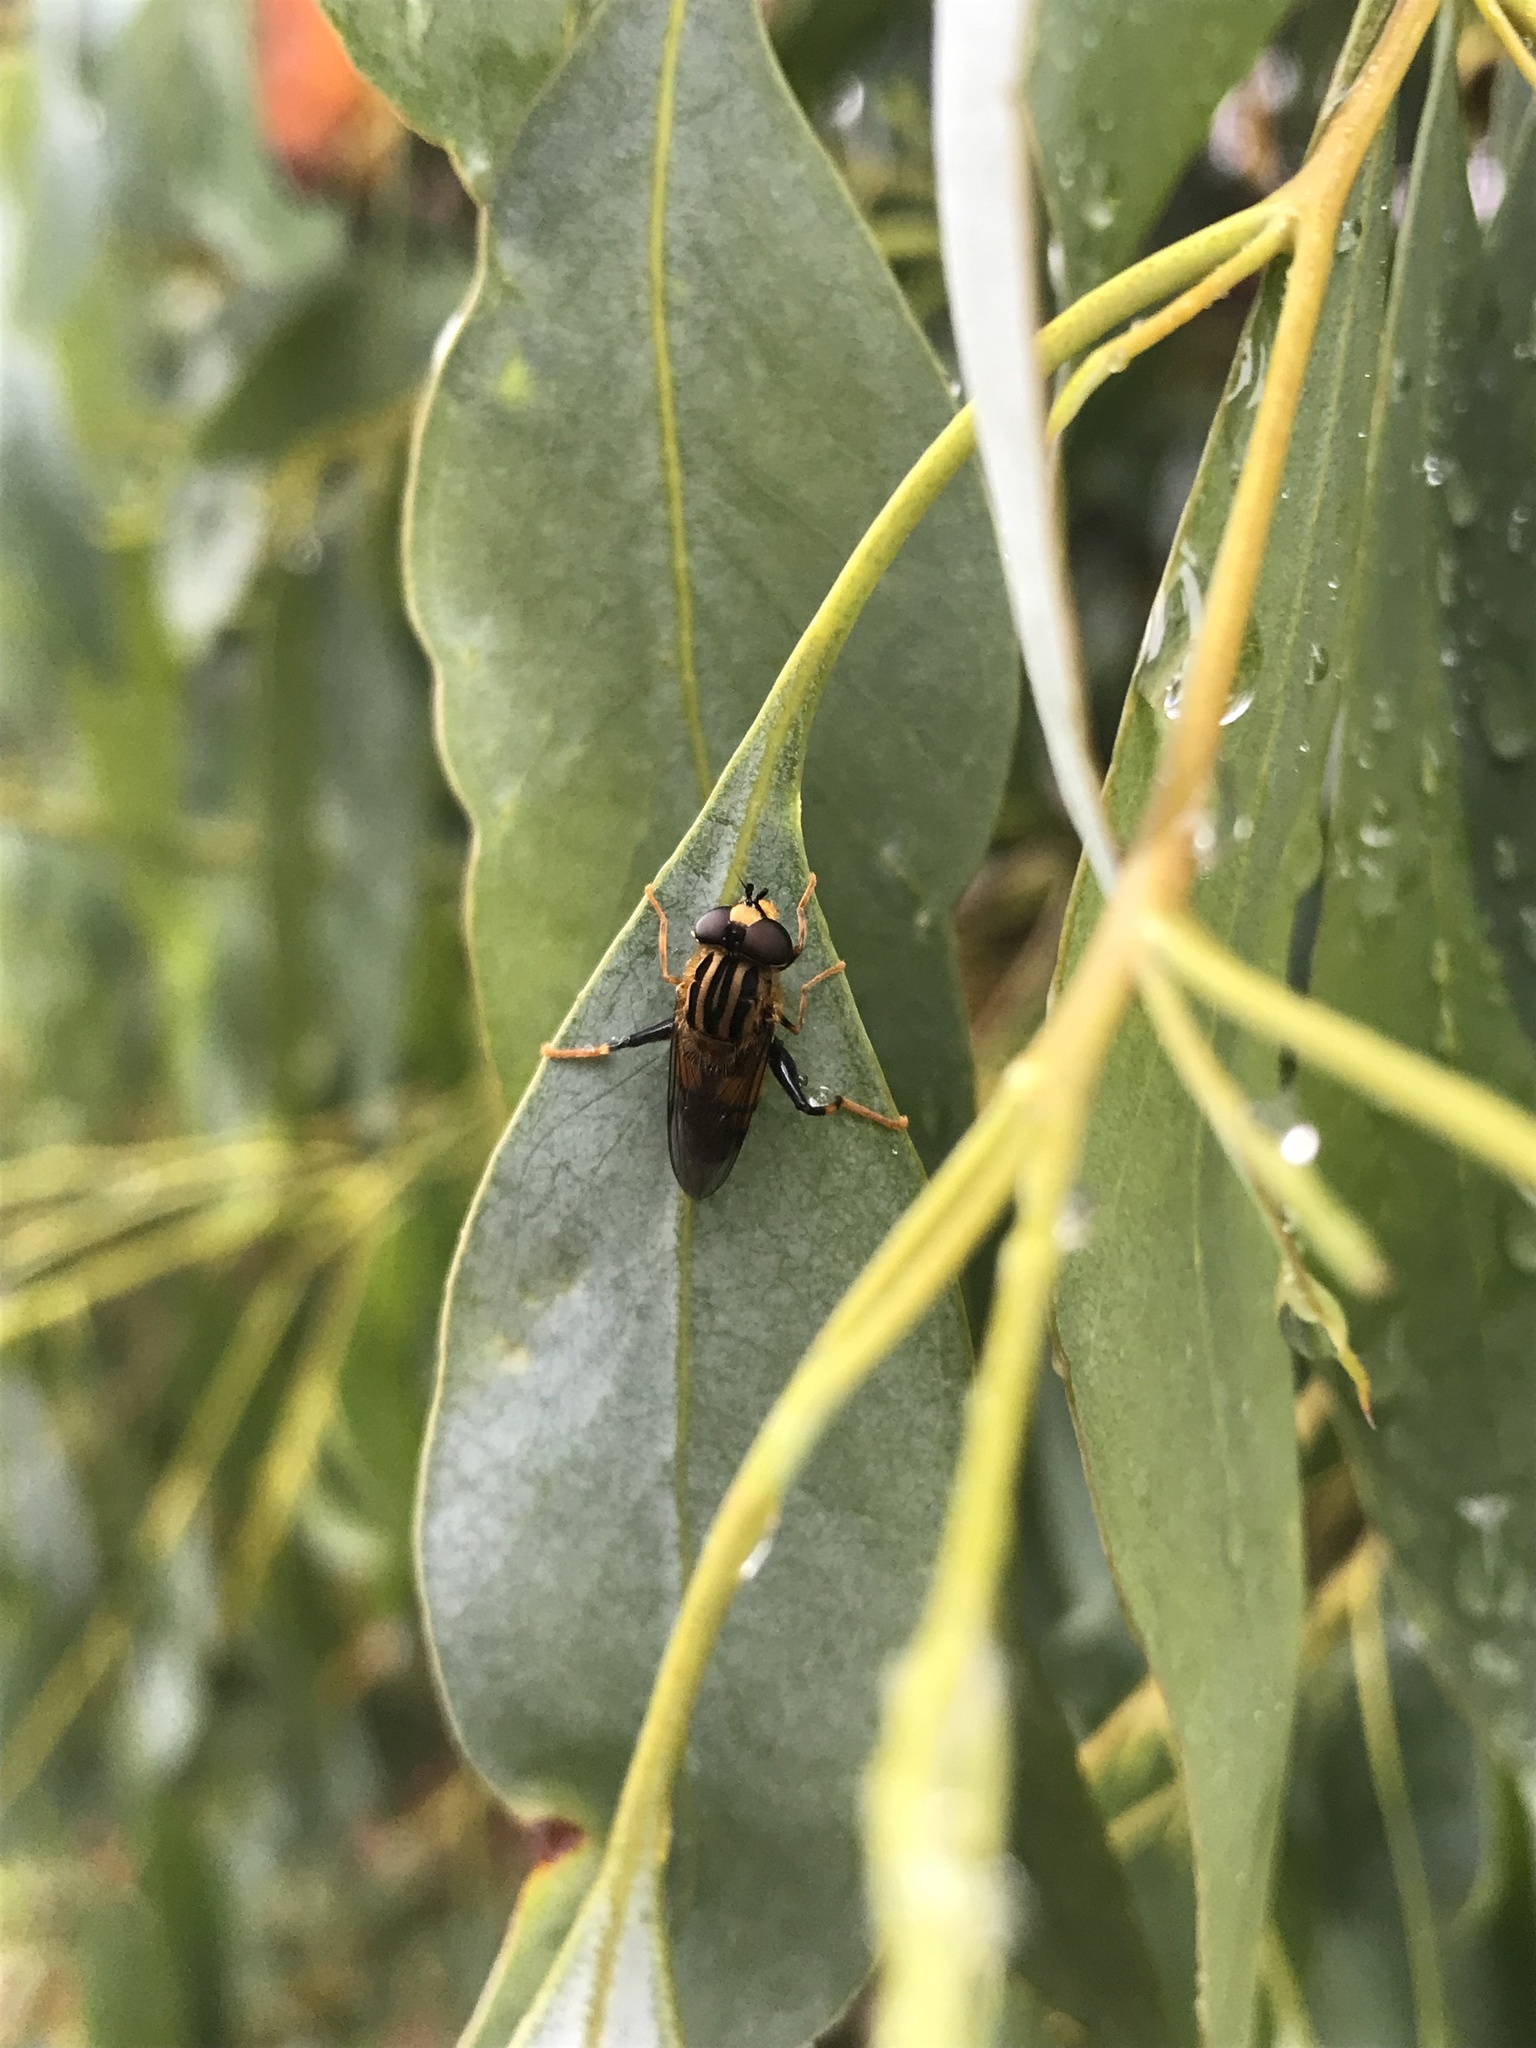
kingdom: Animalia
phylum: Arthropoda
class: Insecta
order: Diptera
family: Syrphidae
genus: Helophilus
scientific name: Helophilus antipodus
